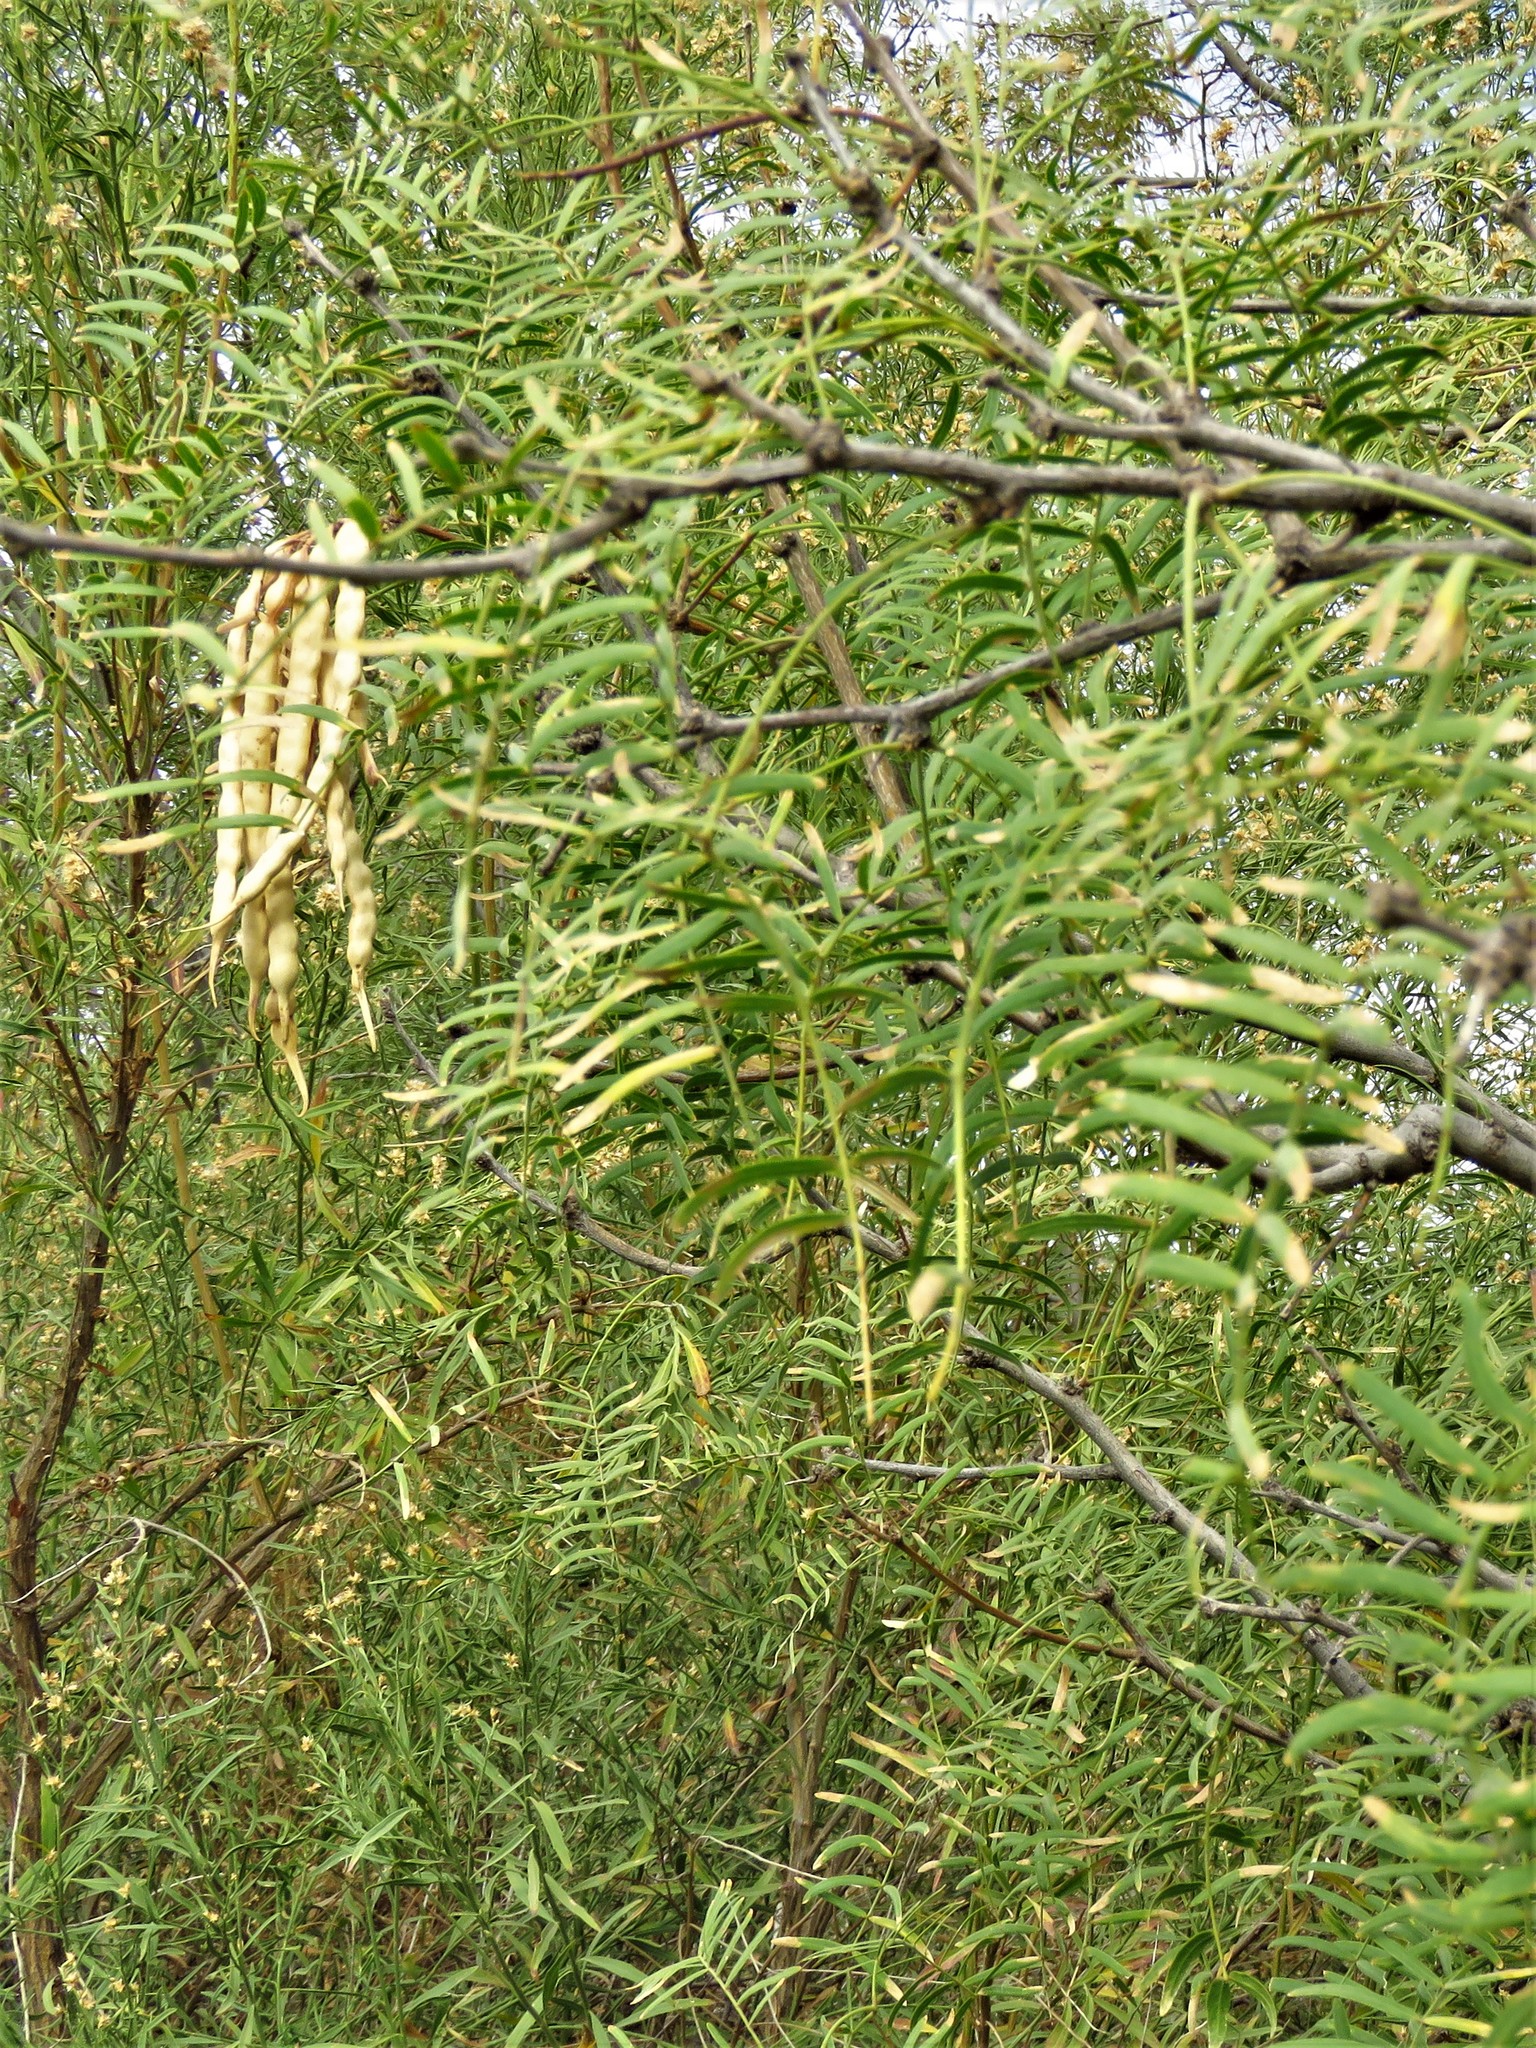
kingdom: Plantae
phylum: Tracheophyta
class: Magnoliopsida
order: Fabales
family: Fabaceae
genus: Prosopis
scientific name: Prosopis glandulosa
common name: Honey mesquite
